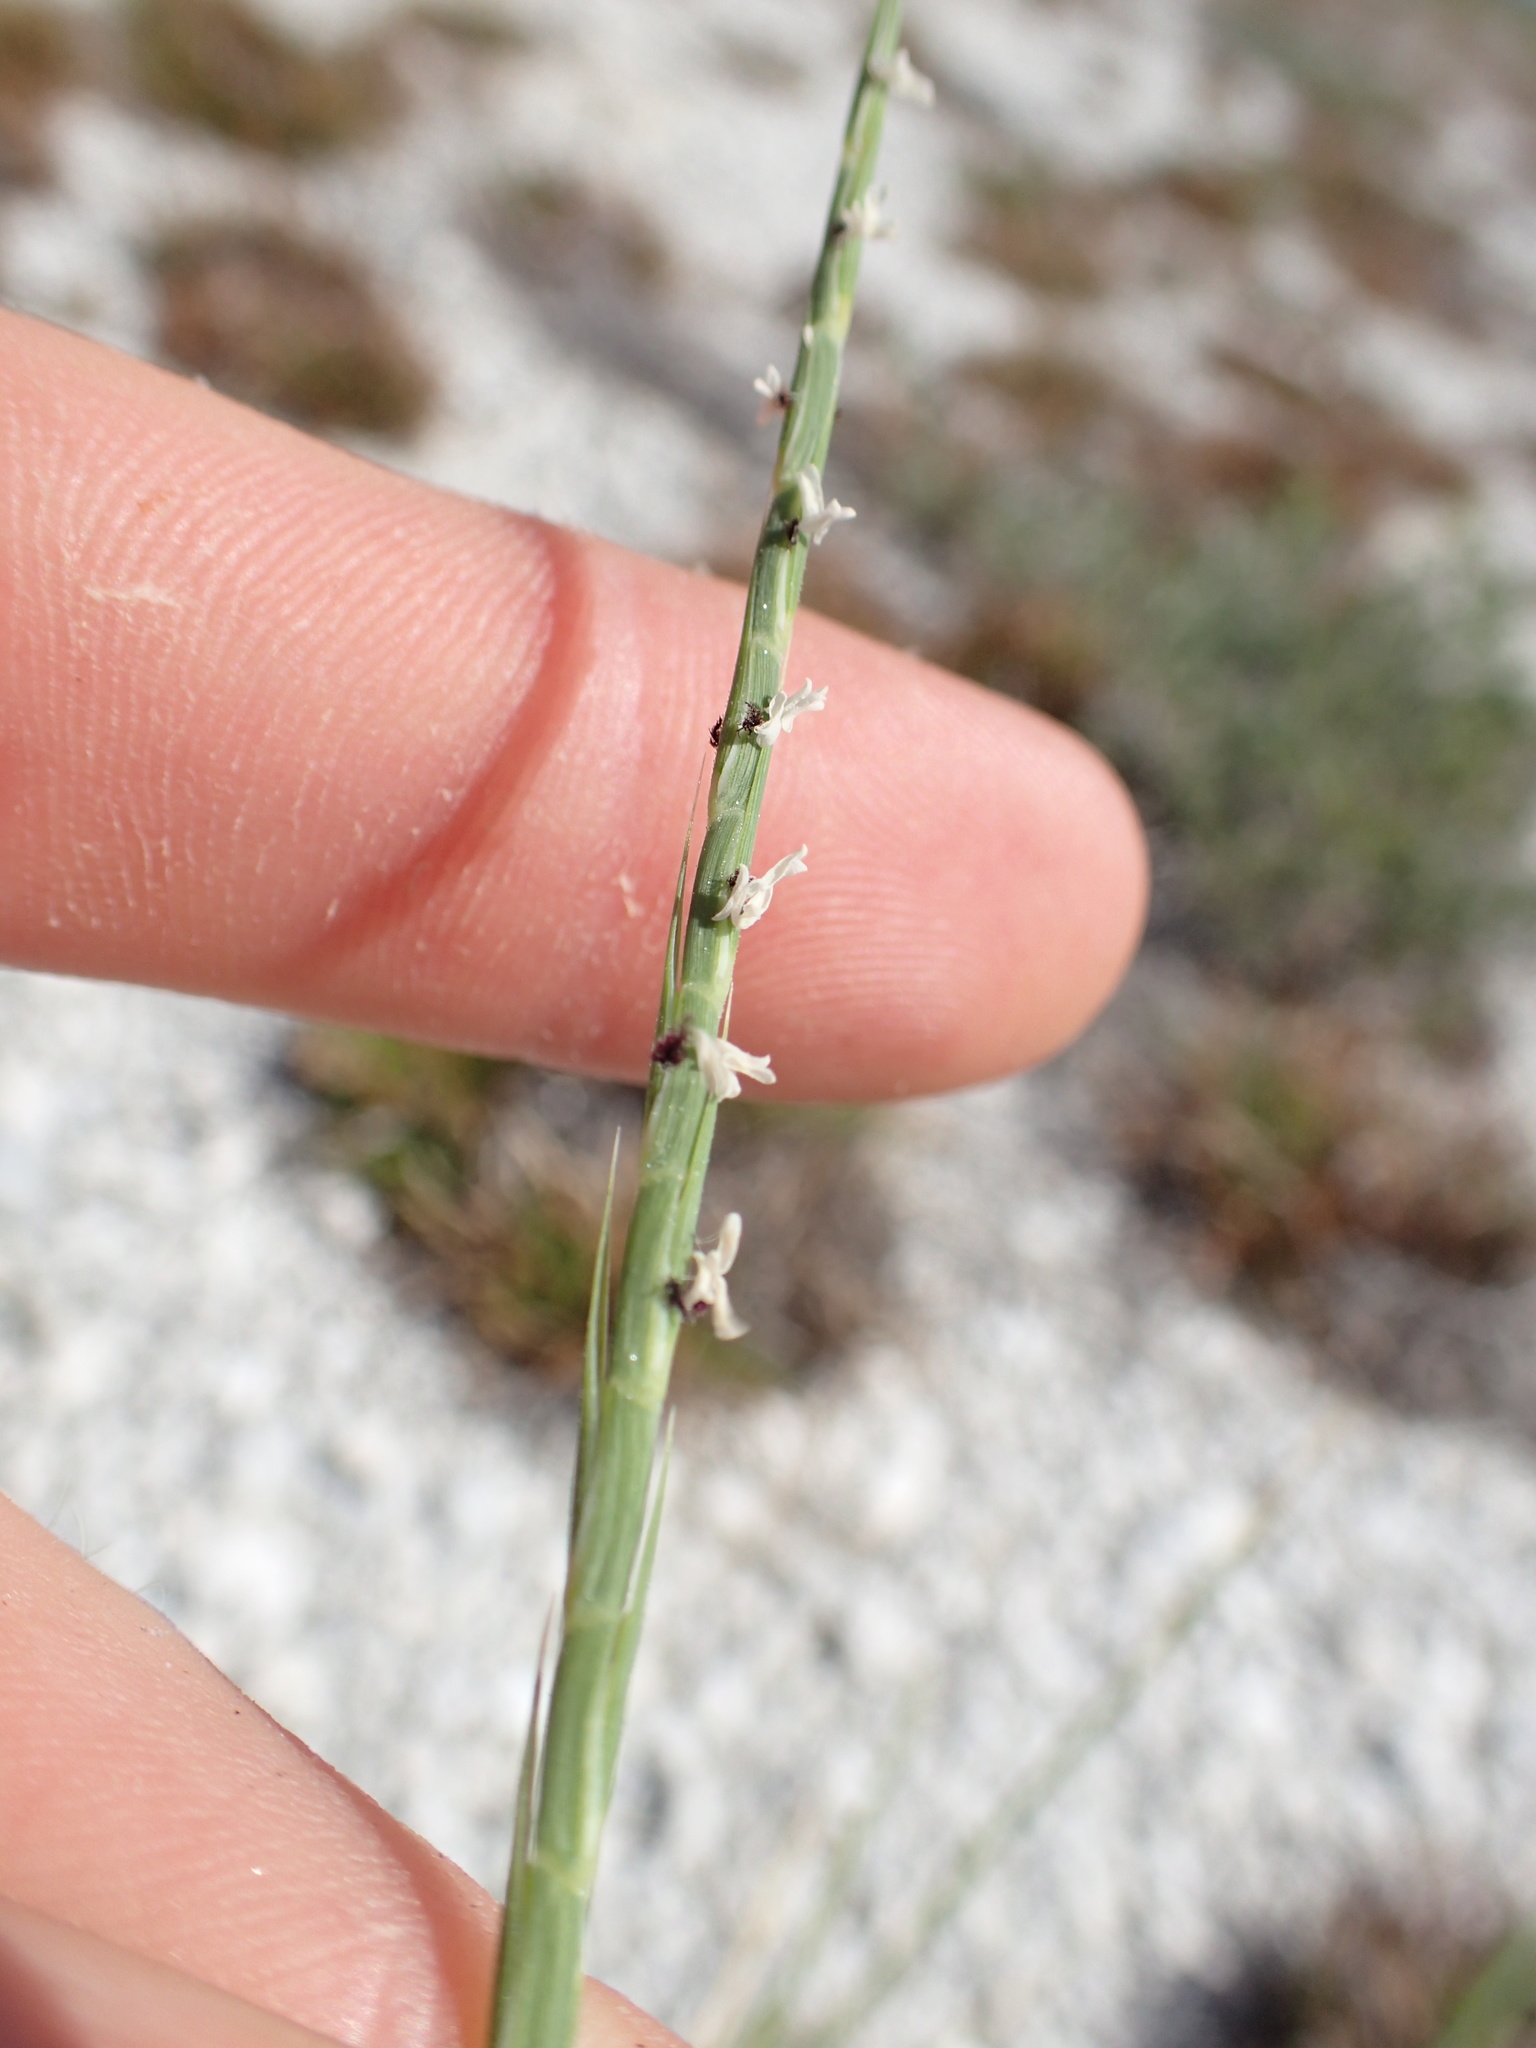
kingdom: Plantae
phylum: Tracheophyta
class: Liliopsida
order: Poales
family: Poaceae
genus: Lepturus
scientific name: Lepturus repens
